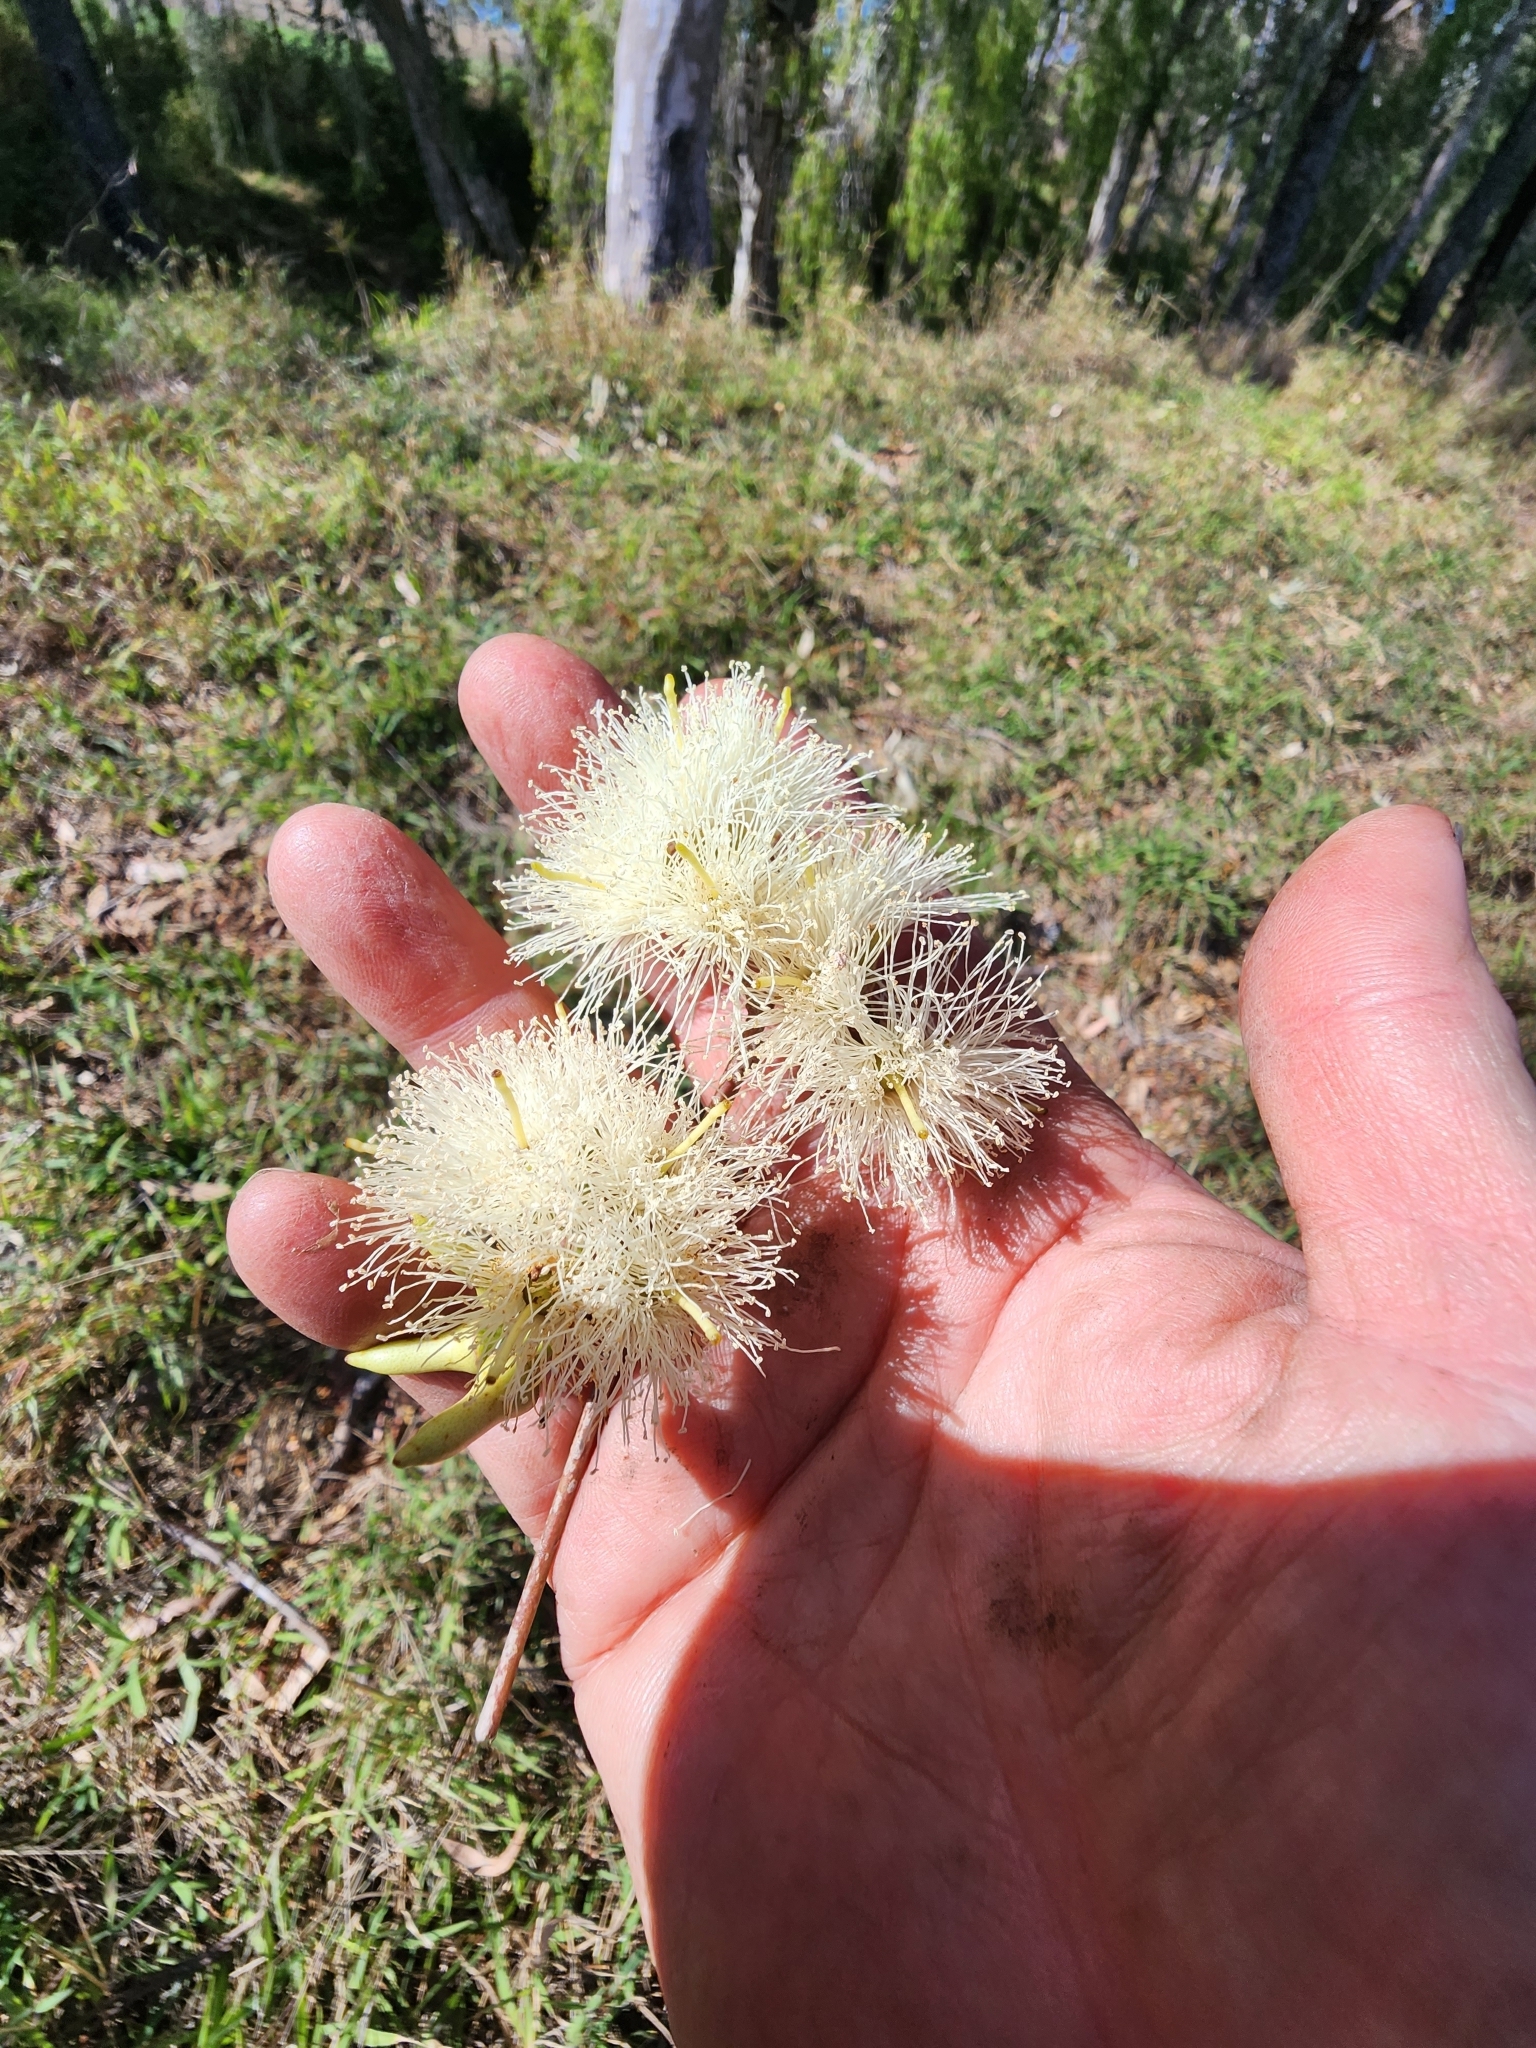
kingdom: Plantae
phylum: Tracheophyta
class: Magnoliopsida
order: Myrtales
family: Myrtaceae
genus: Eucalyptus
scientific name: Eucalyptus tereticornis
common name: Forest redgum
